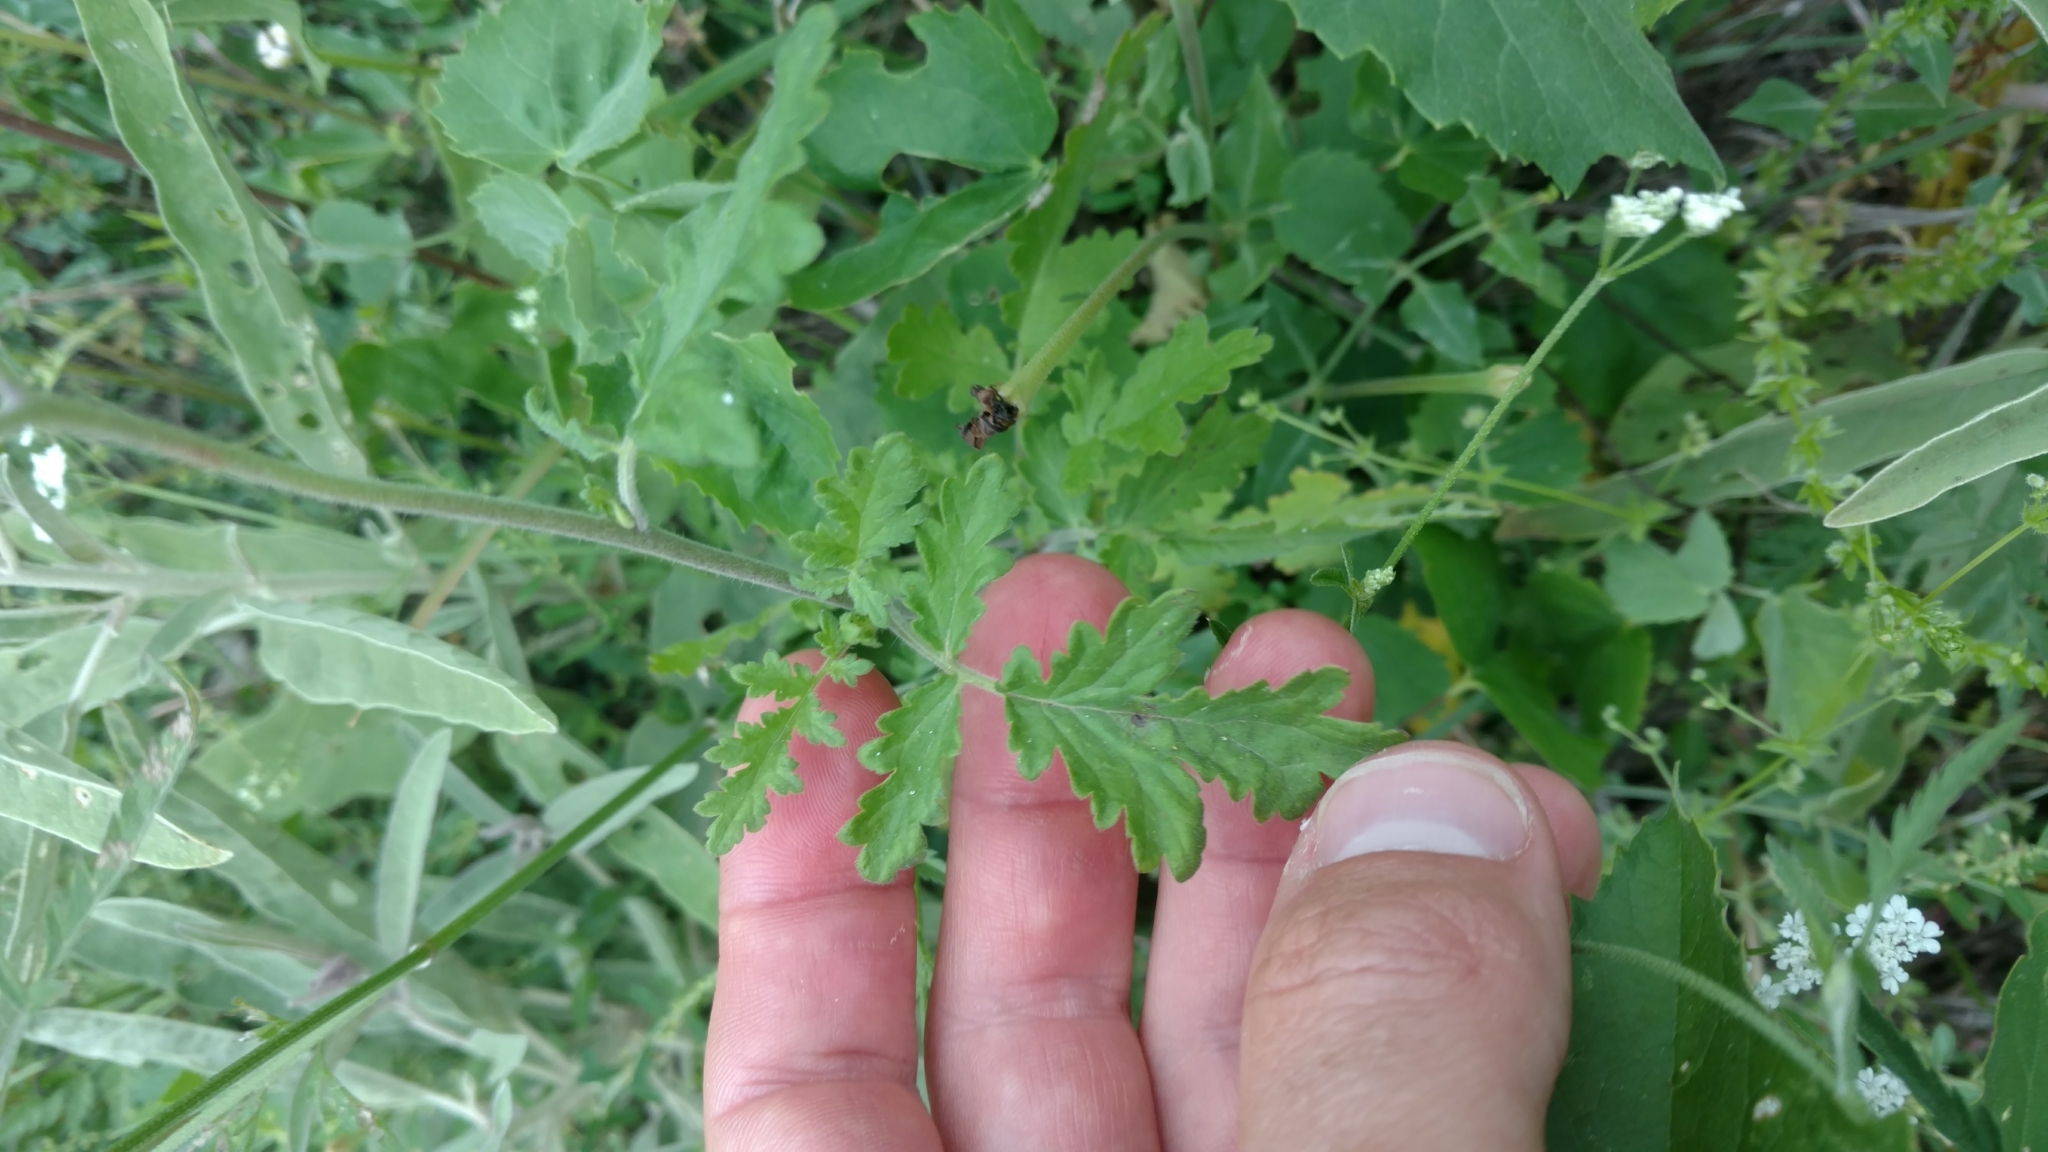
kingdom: Plantae
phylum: Tracheophyta
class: Magnoliopsida
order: Boraginales
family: Hydrophyllaceae
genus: Phacelia
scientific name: Phacelia congesta
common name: Blue curls
